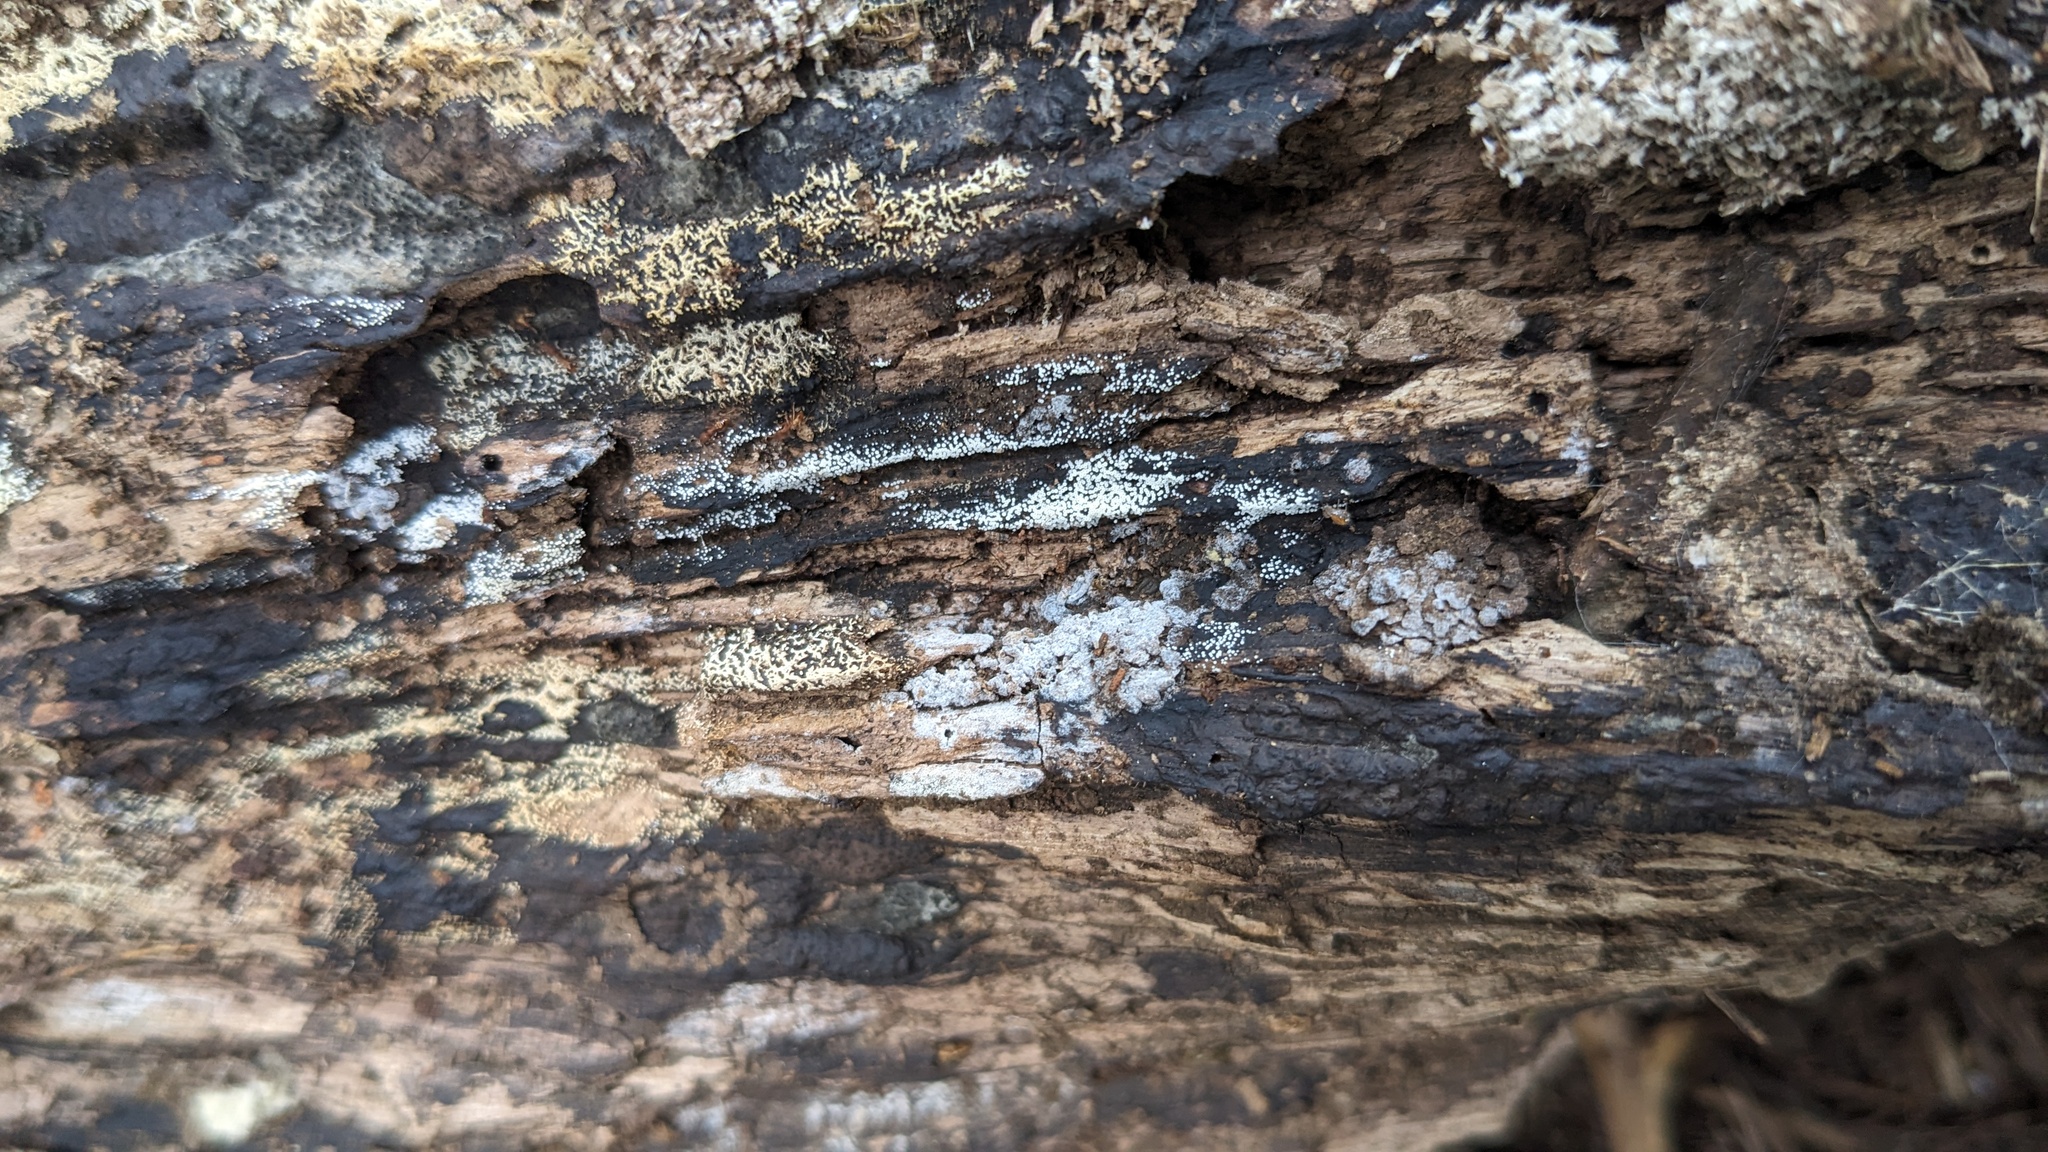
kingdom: Fungi
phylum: Basidiomycota
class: Agaricomycetes
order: Agaricales
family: Marasmiaceae
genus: Henningsomyces
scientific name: Henningsomyces candidus
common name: White tubelet
